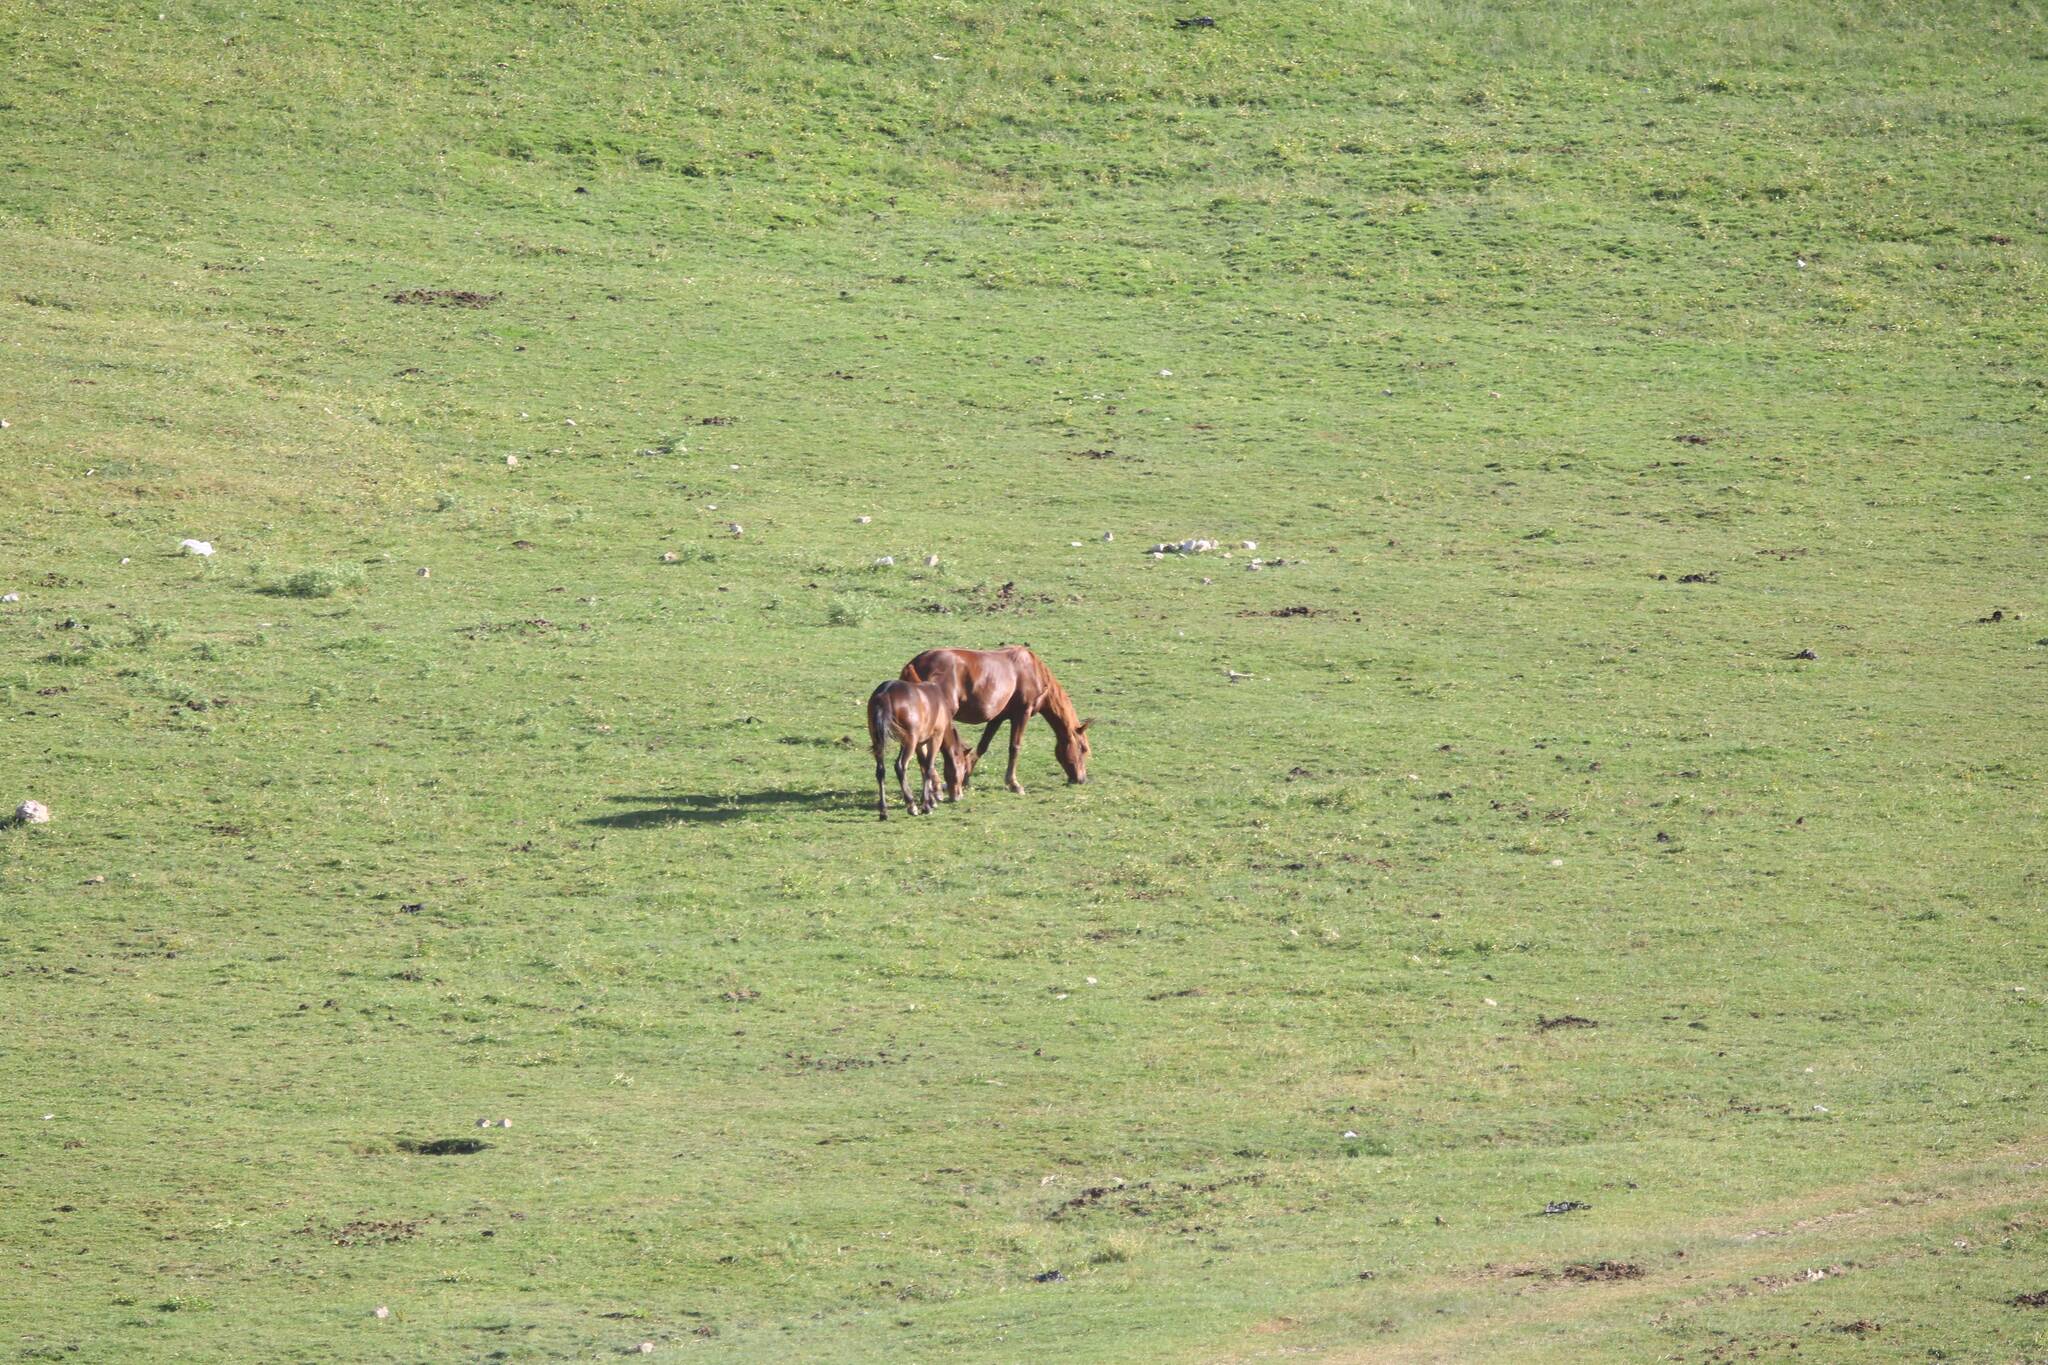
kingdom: Animalia
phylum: Chordata
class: Mammalia
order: Perissodactyla
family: Equidae
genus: Equus
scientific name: Equus caballus
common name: Horse
